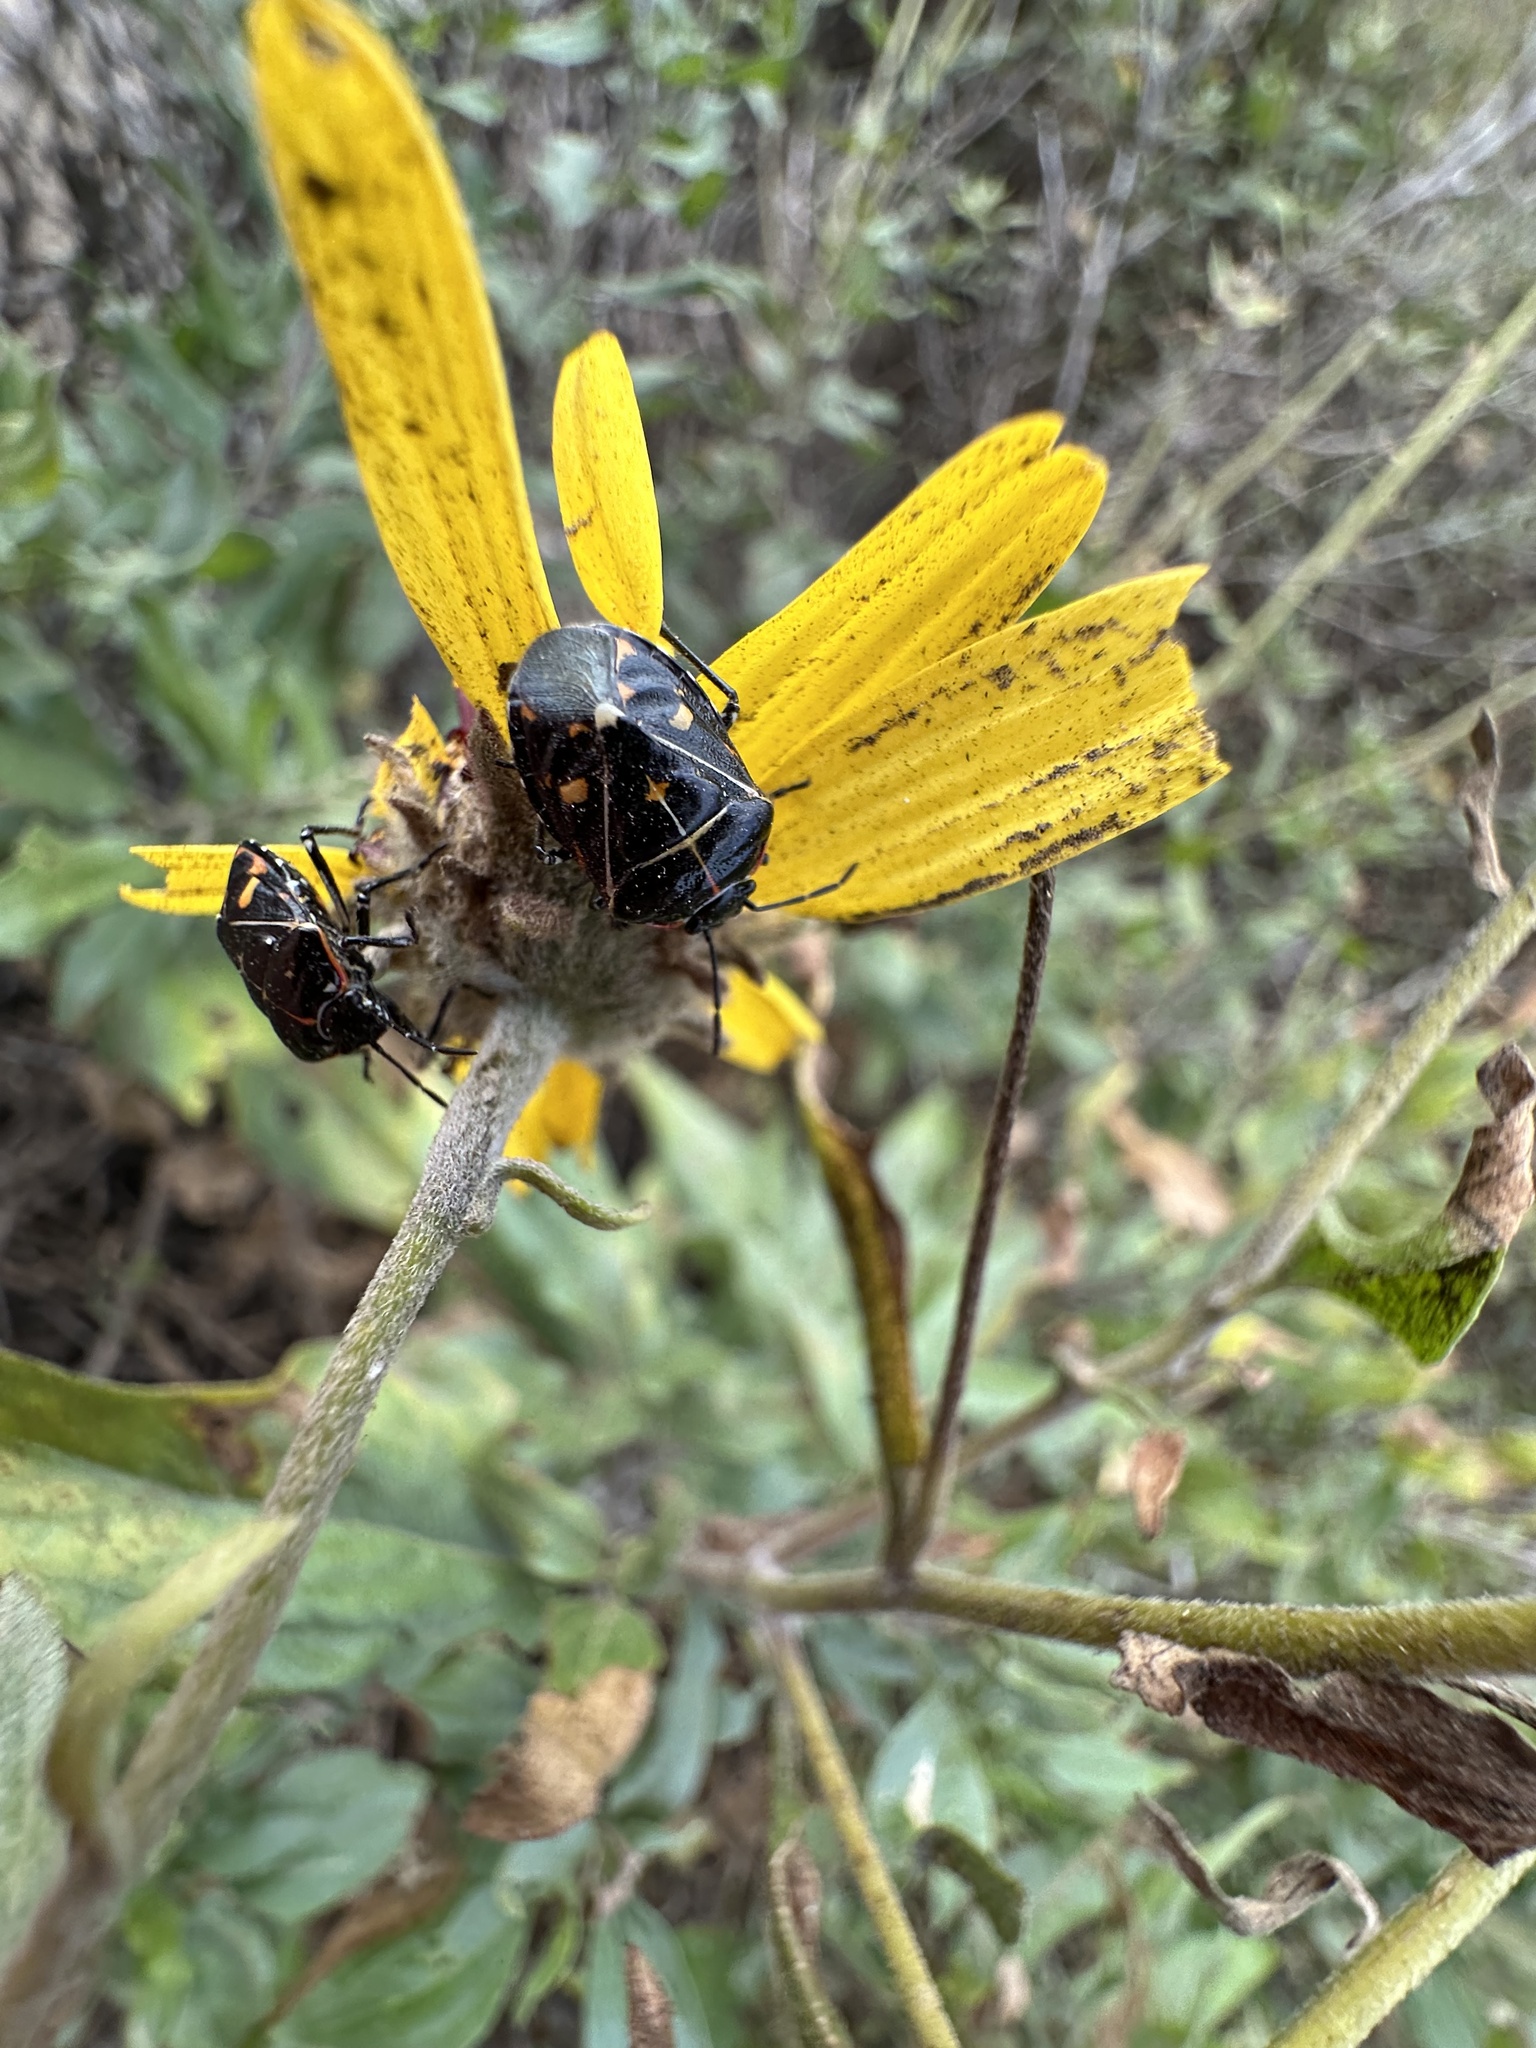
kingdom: Animalia
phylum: Arthropoda
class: Insecta
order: Hemiptera
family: Pentatomidae
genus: Murgantia
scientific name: Murgantia histrionica
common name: Harlequin bug
